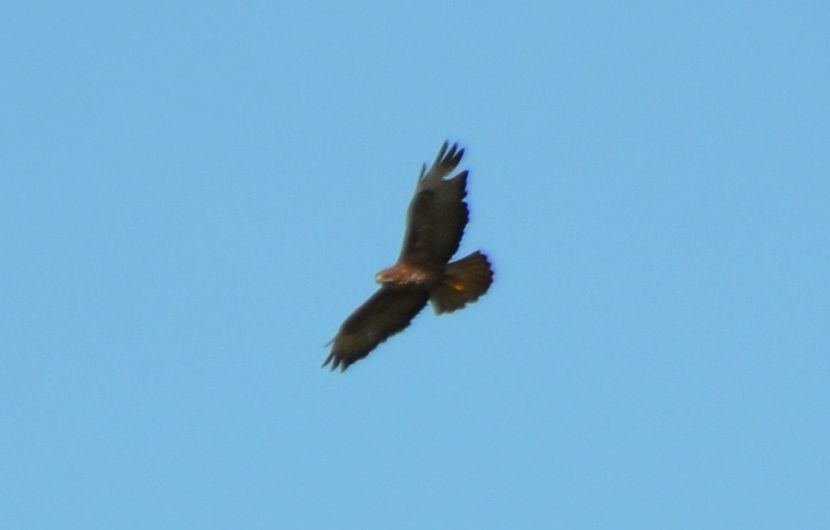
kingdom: Animalia
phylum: Chordata
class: Aves
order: Accipitriformes
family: Accipitridae
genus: Buteo
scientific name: Buteo buteo
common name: Common buzzard
